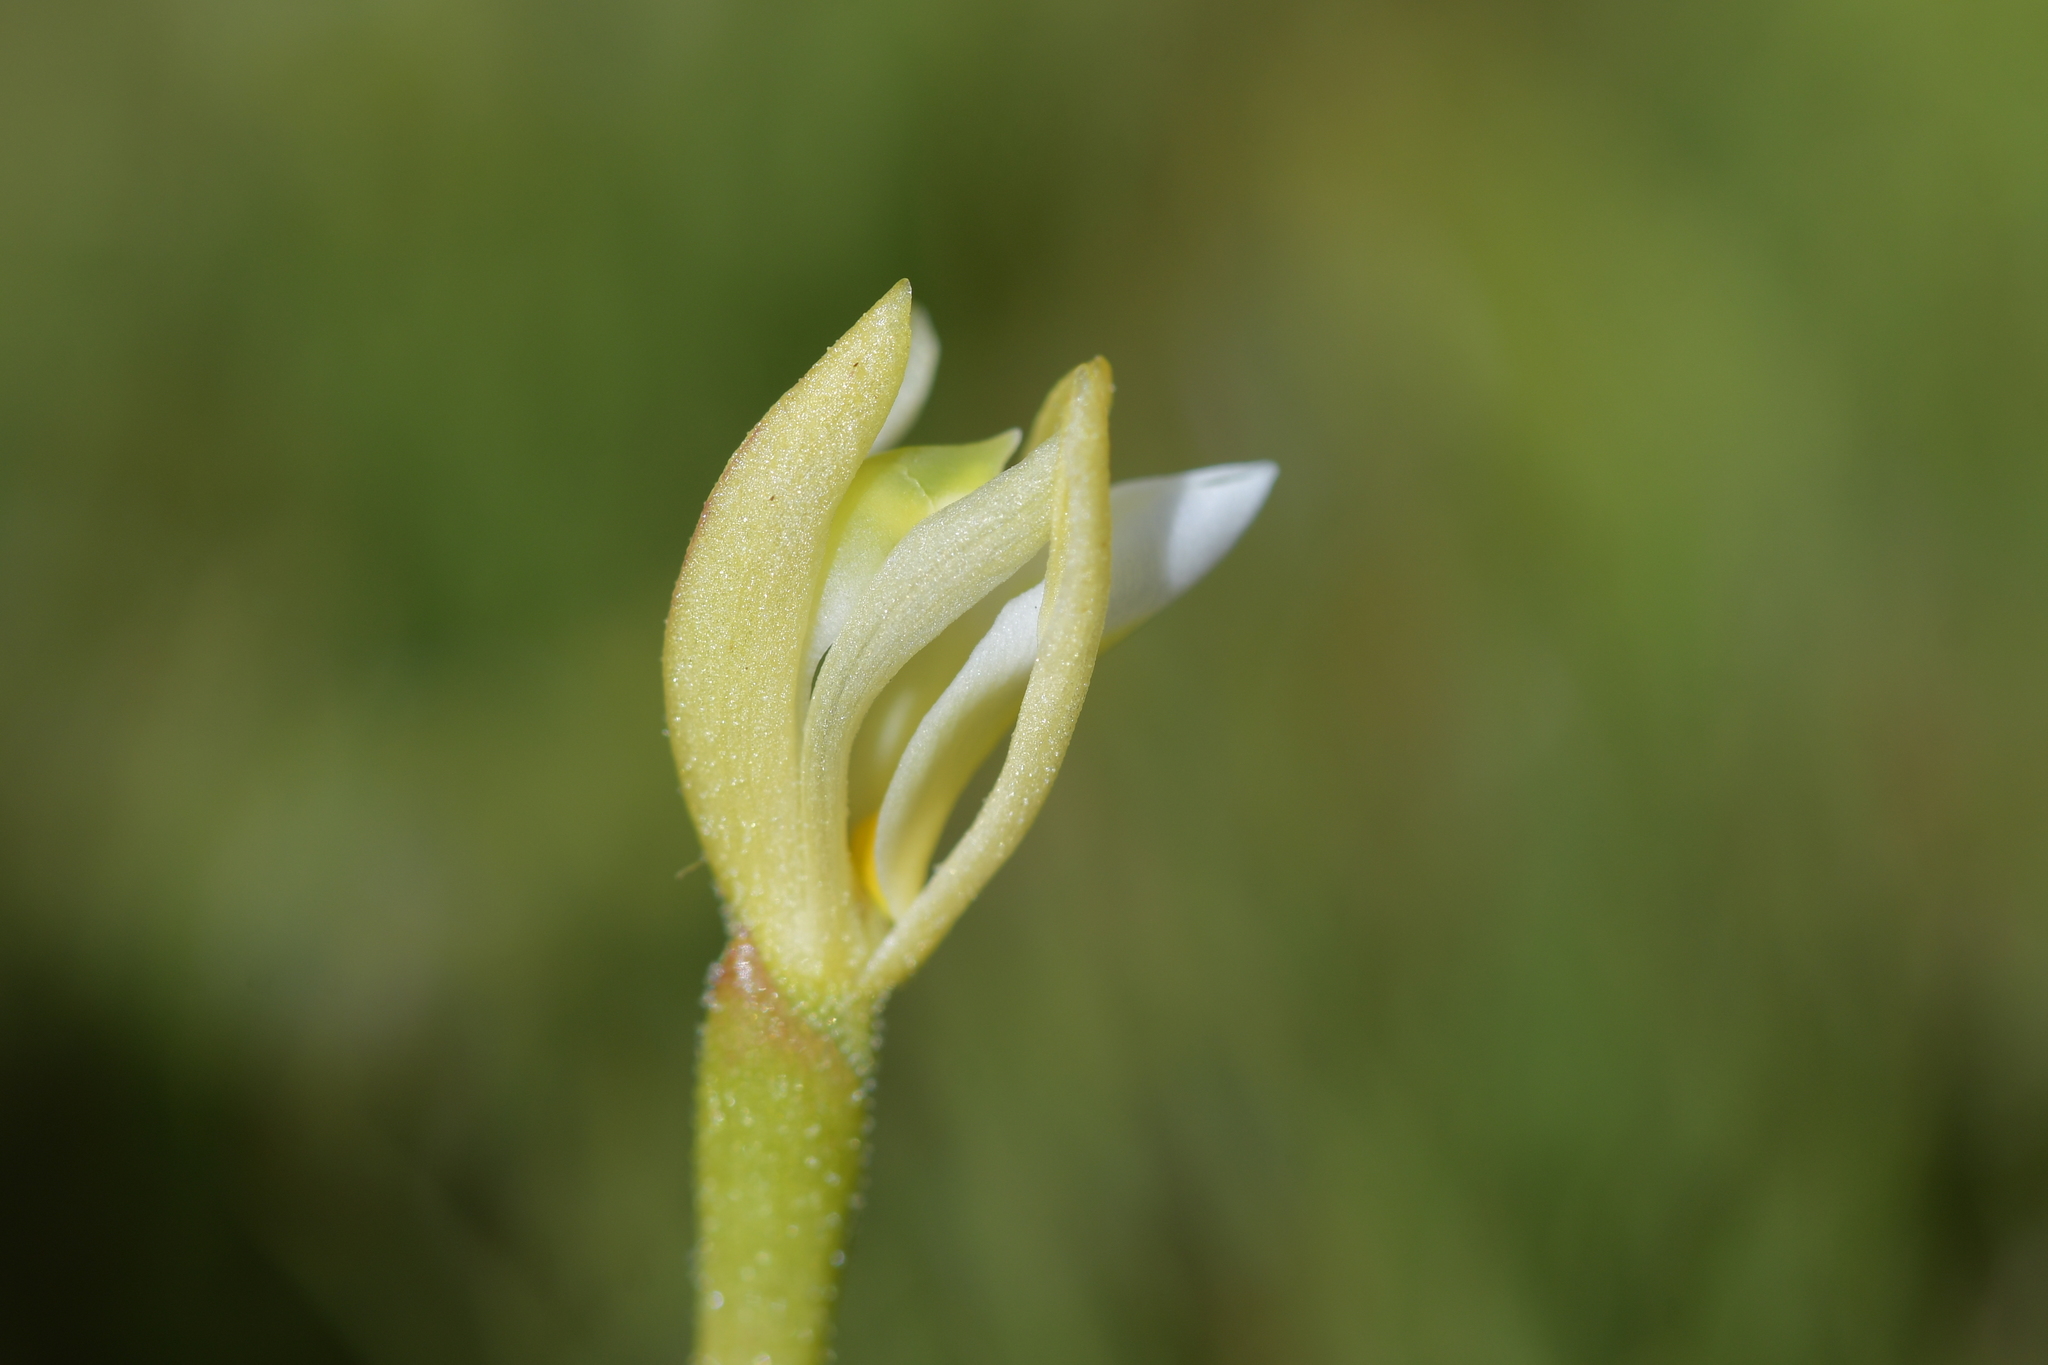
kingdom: Plantae
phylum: Tracheophyta
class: Liliopsida
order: Asparagales
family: Orchidaceae
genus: Aporostylis
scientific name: Aporostylis bifolia
